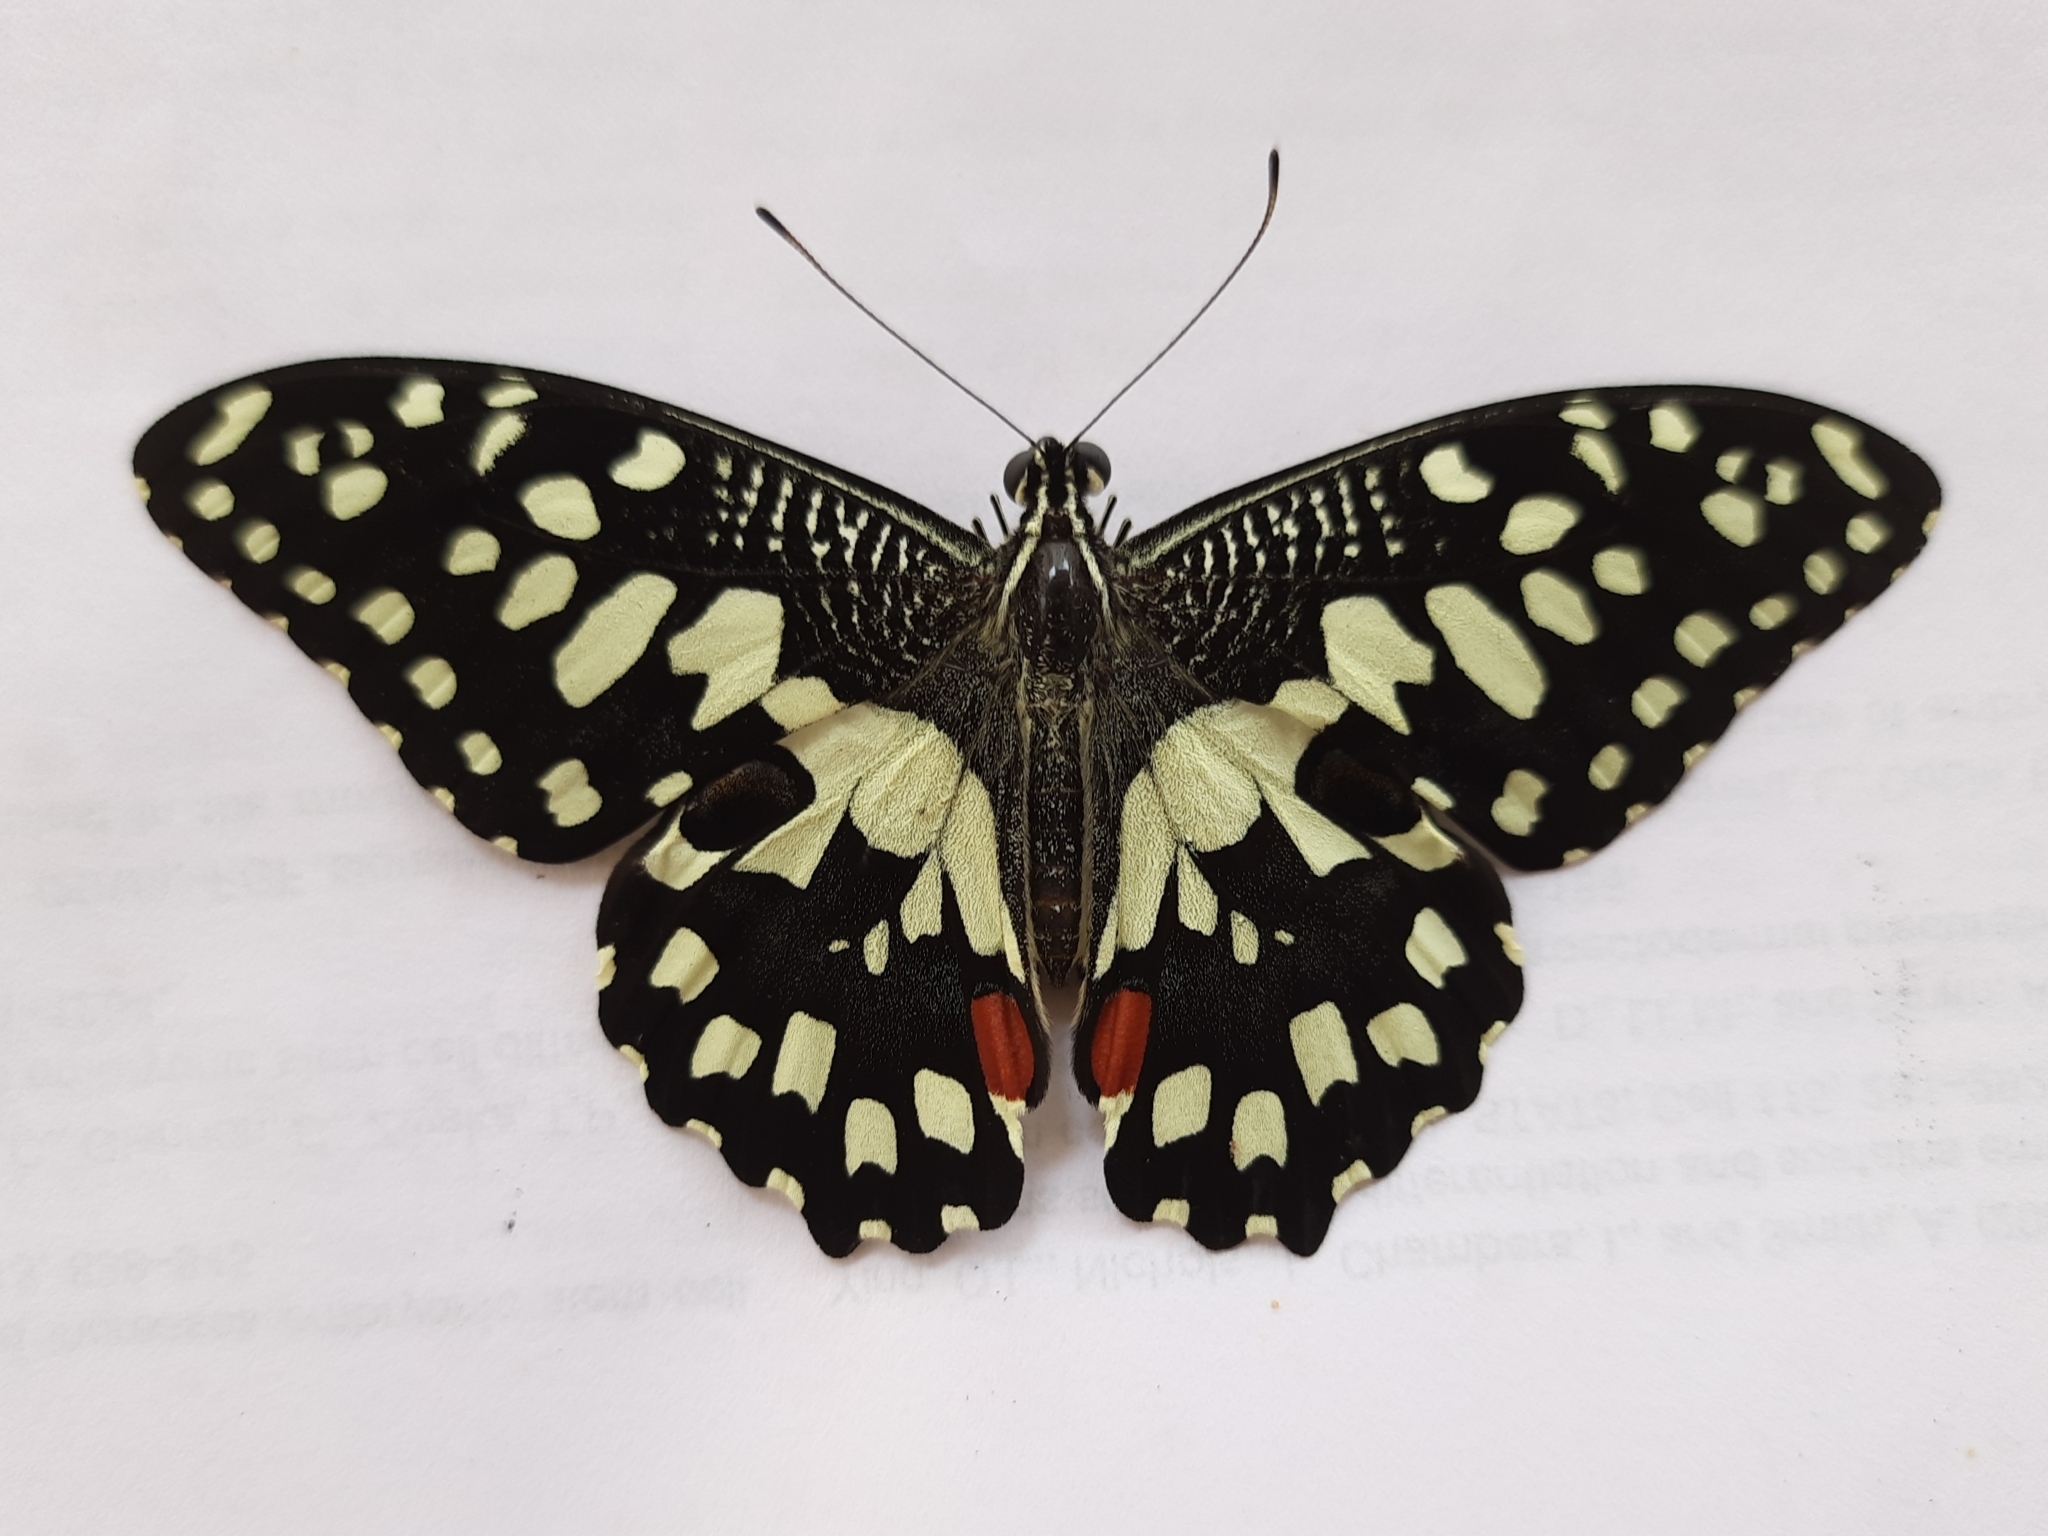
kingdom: Animalia
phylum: Arthropoda
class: Insecta
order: Lepidoptera
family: Papilionidae
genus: Papilio
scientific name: Papilio demoleus
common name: Lime butterfly
